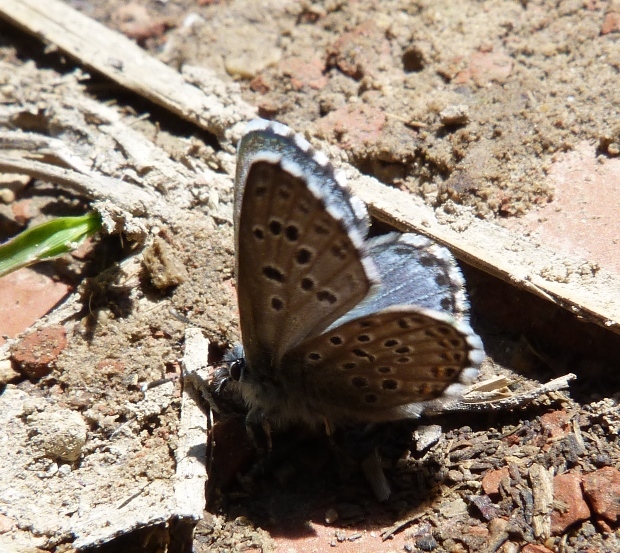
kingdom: Animalia
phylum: Arthropoda
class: Insecta
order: Lepidoptera
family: Lycaenidae
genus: Pseudophilotes
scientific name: Pseudophilotes baton
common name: Baton blue
